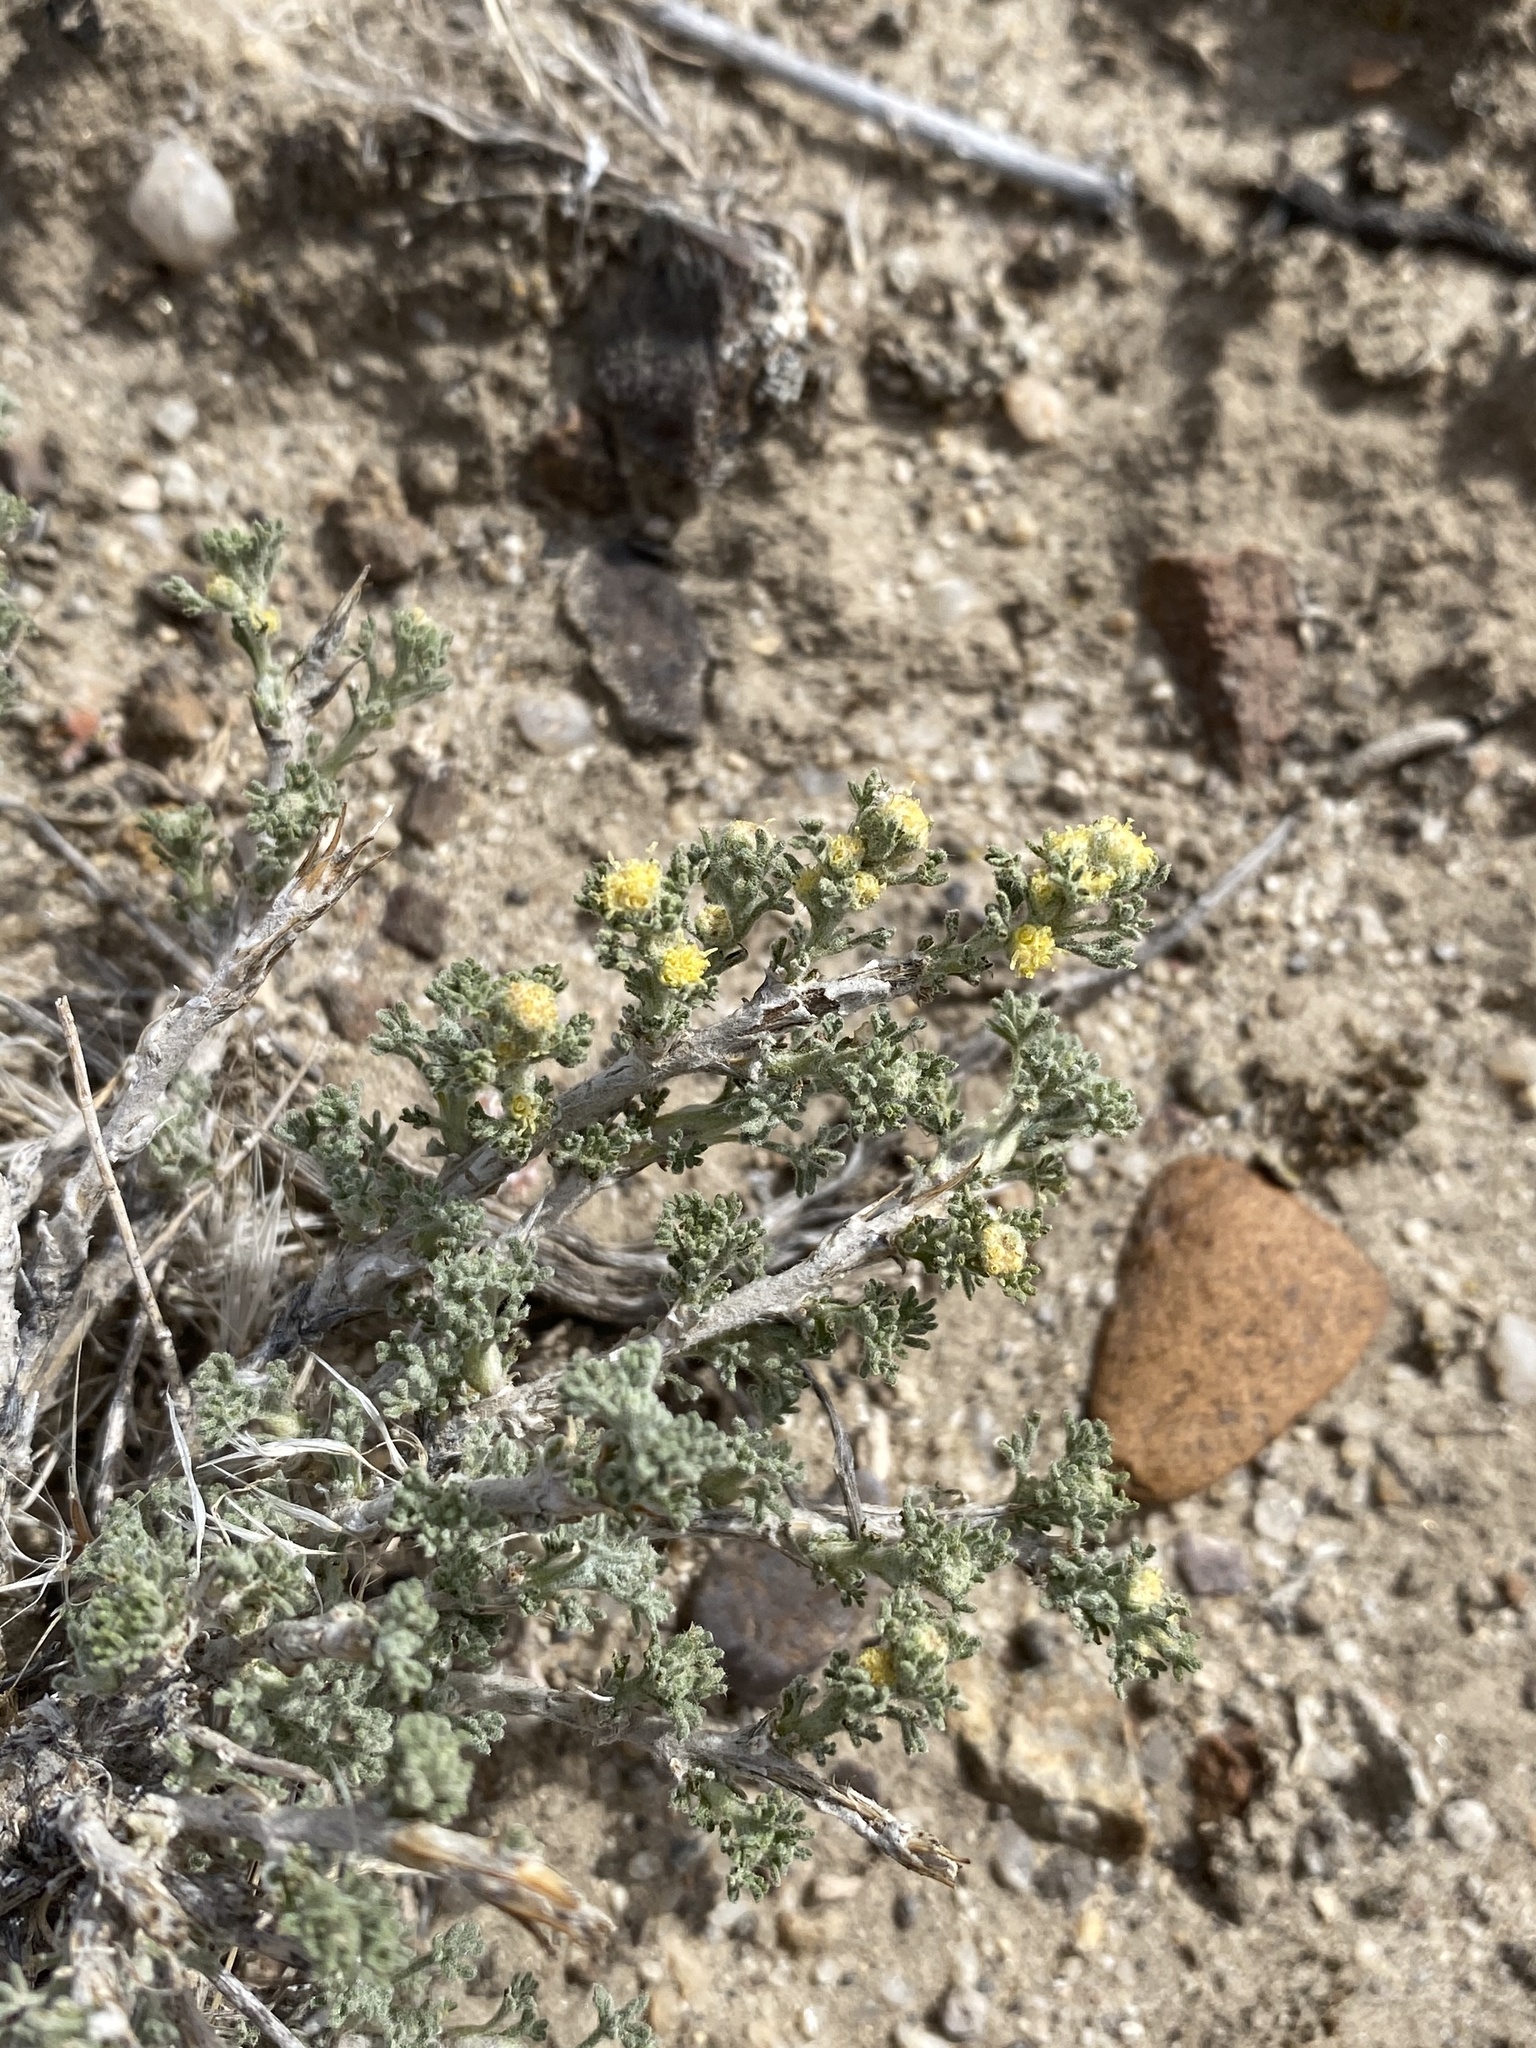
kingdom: Plantae
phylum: Tracheophyta
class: Magnoliopsida
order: Asterales
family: Asteraceae
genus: Artemisia
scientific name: Artemisia spinescens
